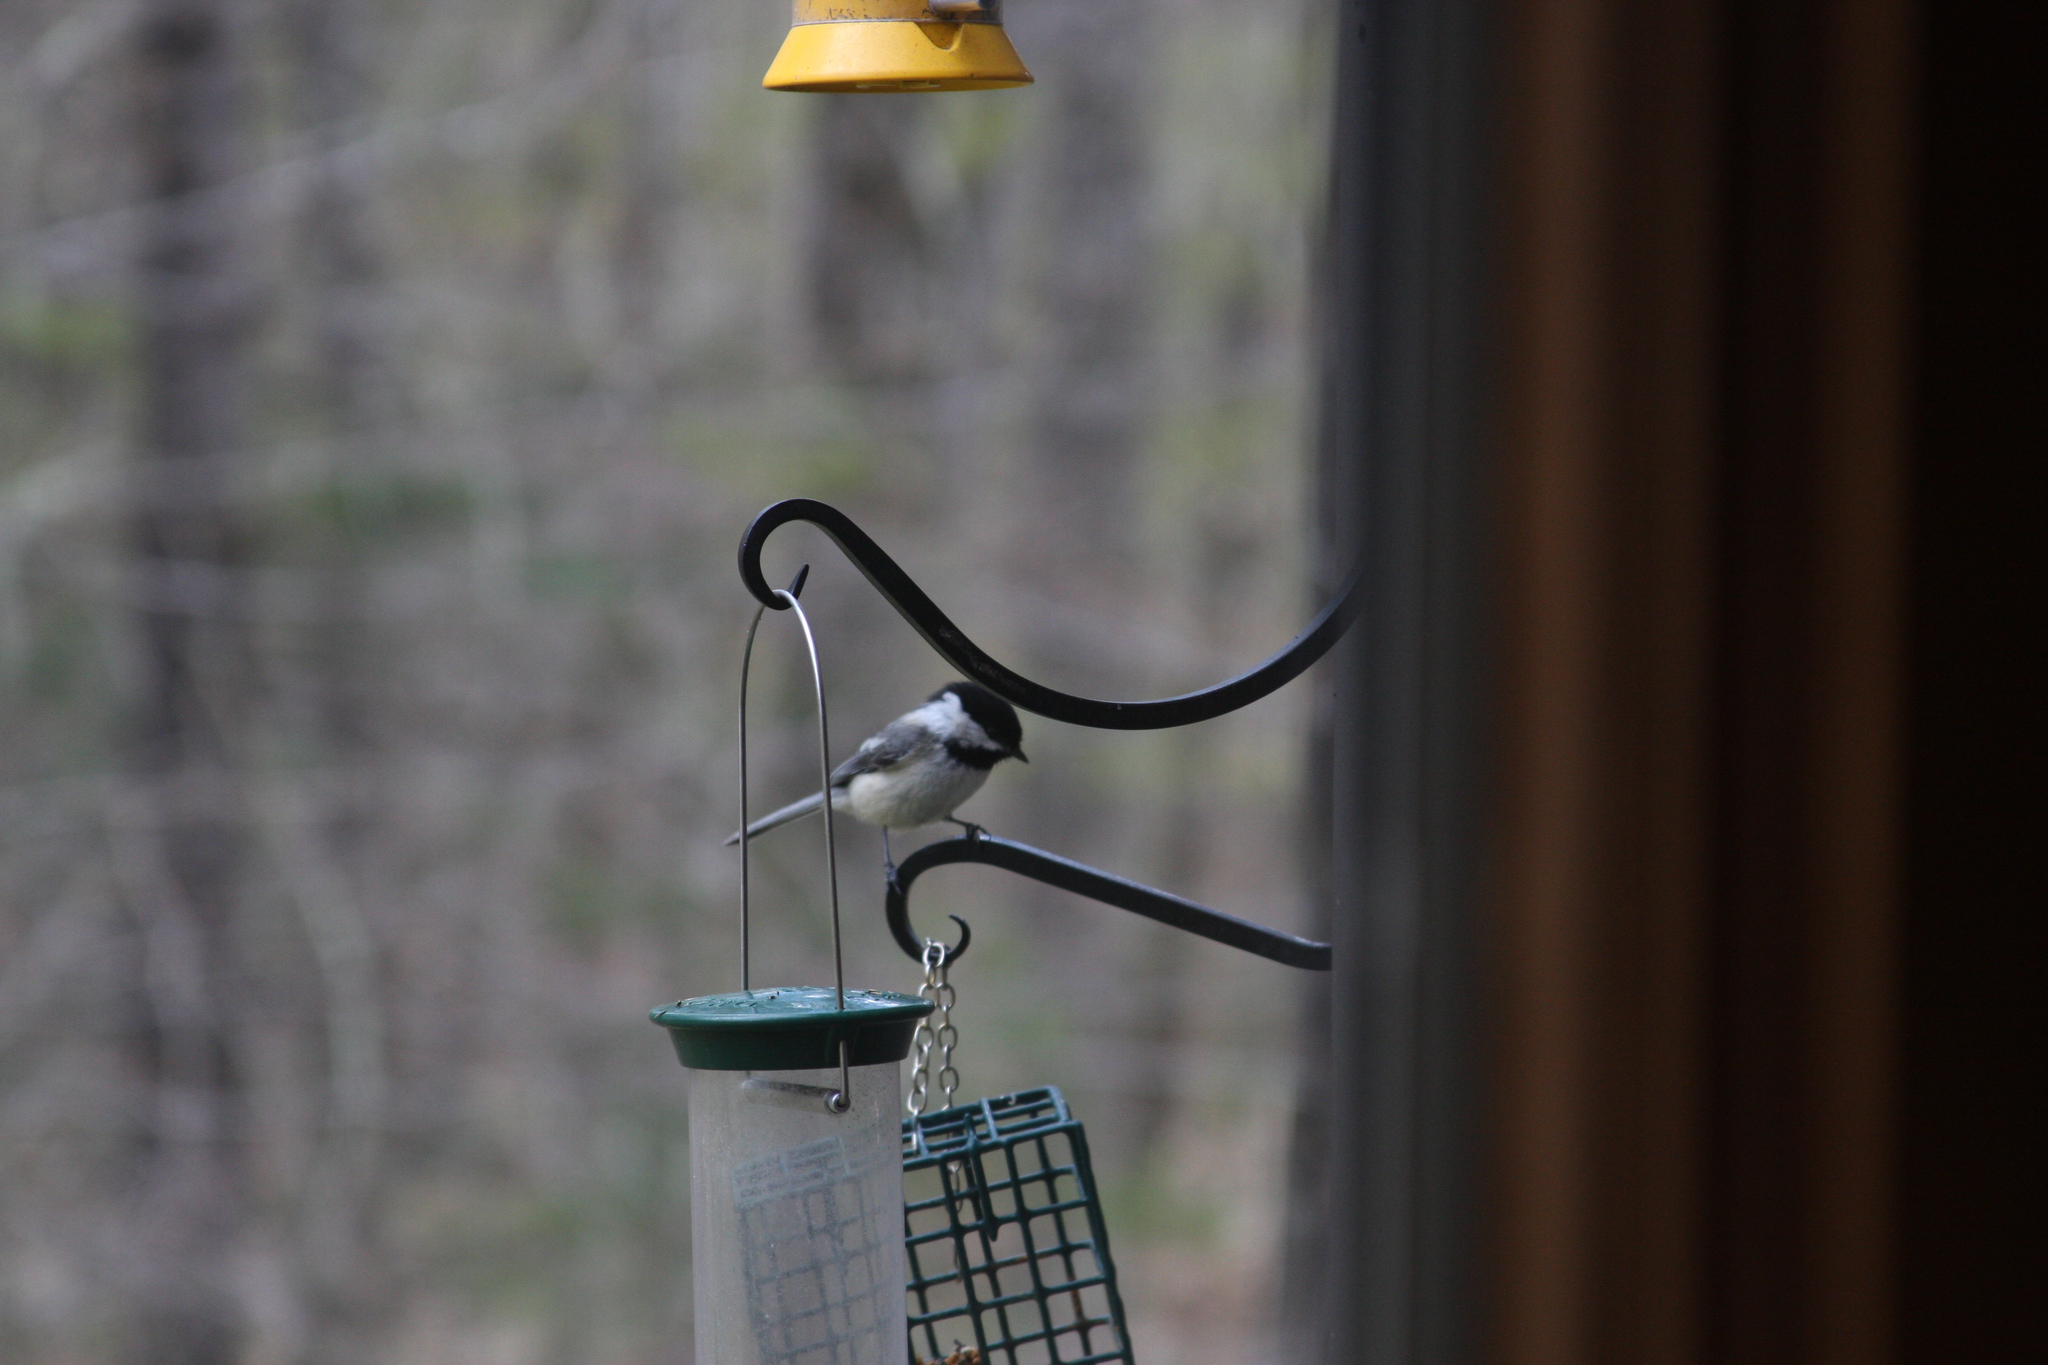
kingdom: Animalia
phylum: Chordata
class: Aves
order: Passeriformes
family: Paridae
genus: Poecile
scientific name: Poecile atricapillus
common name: Black-capped chickadee
